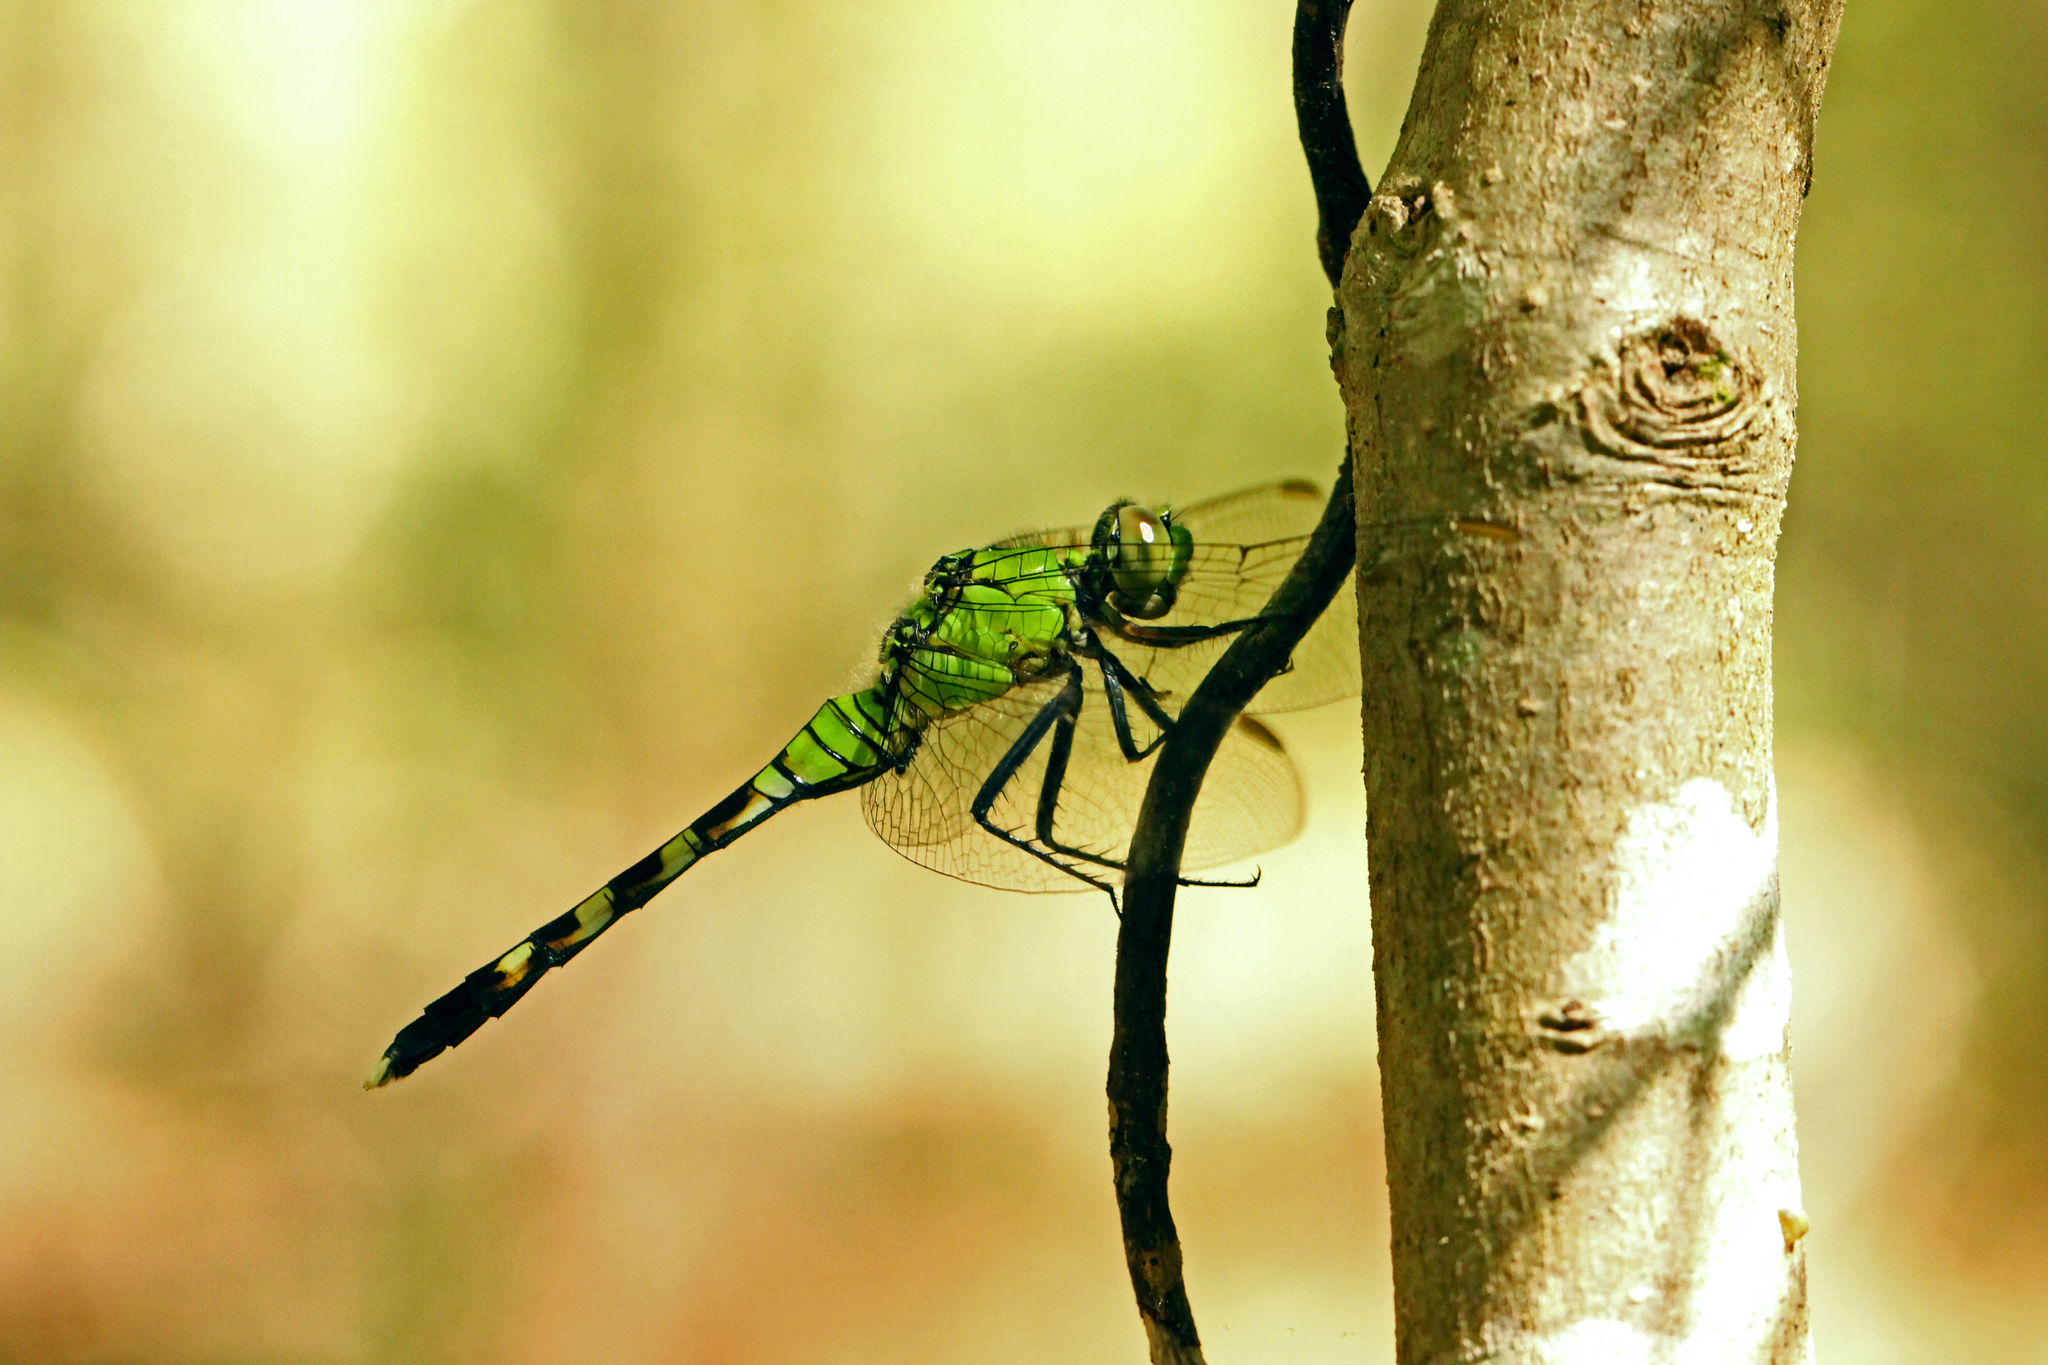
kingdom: Animalia
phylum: Arthropoda
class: Insecta
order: Odonata
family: Libellulidae
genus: Erythemis
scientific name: Erythemis simplicicollis
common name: Eastern pondhawk
